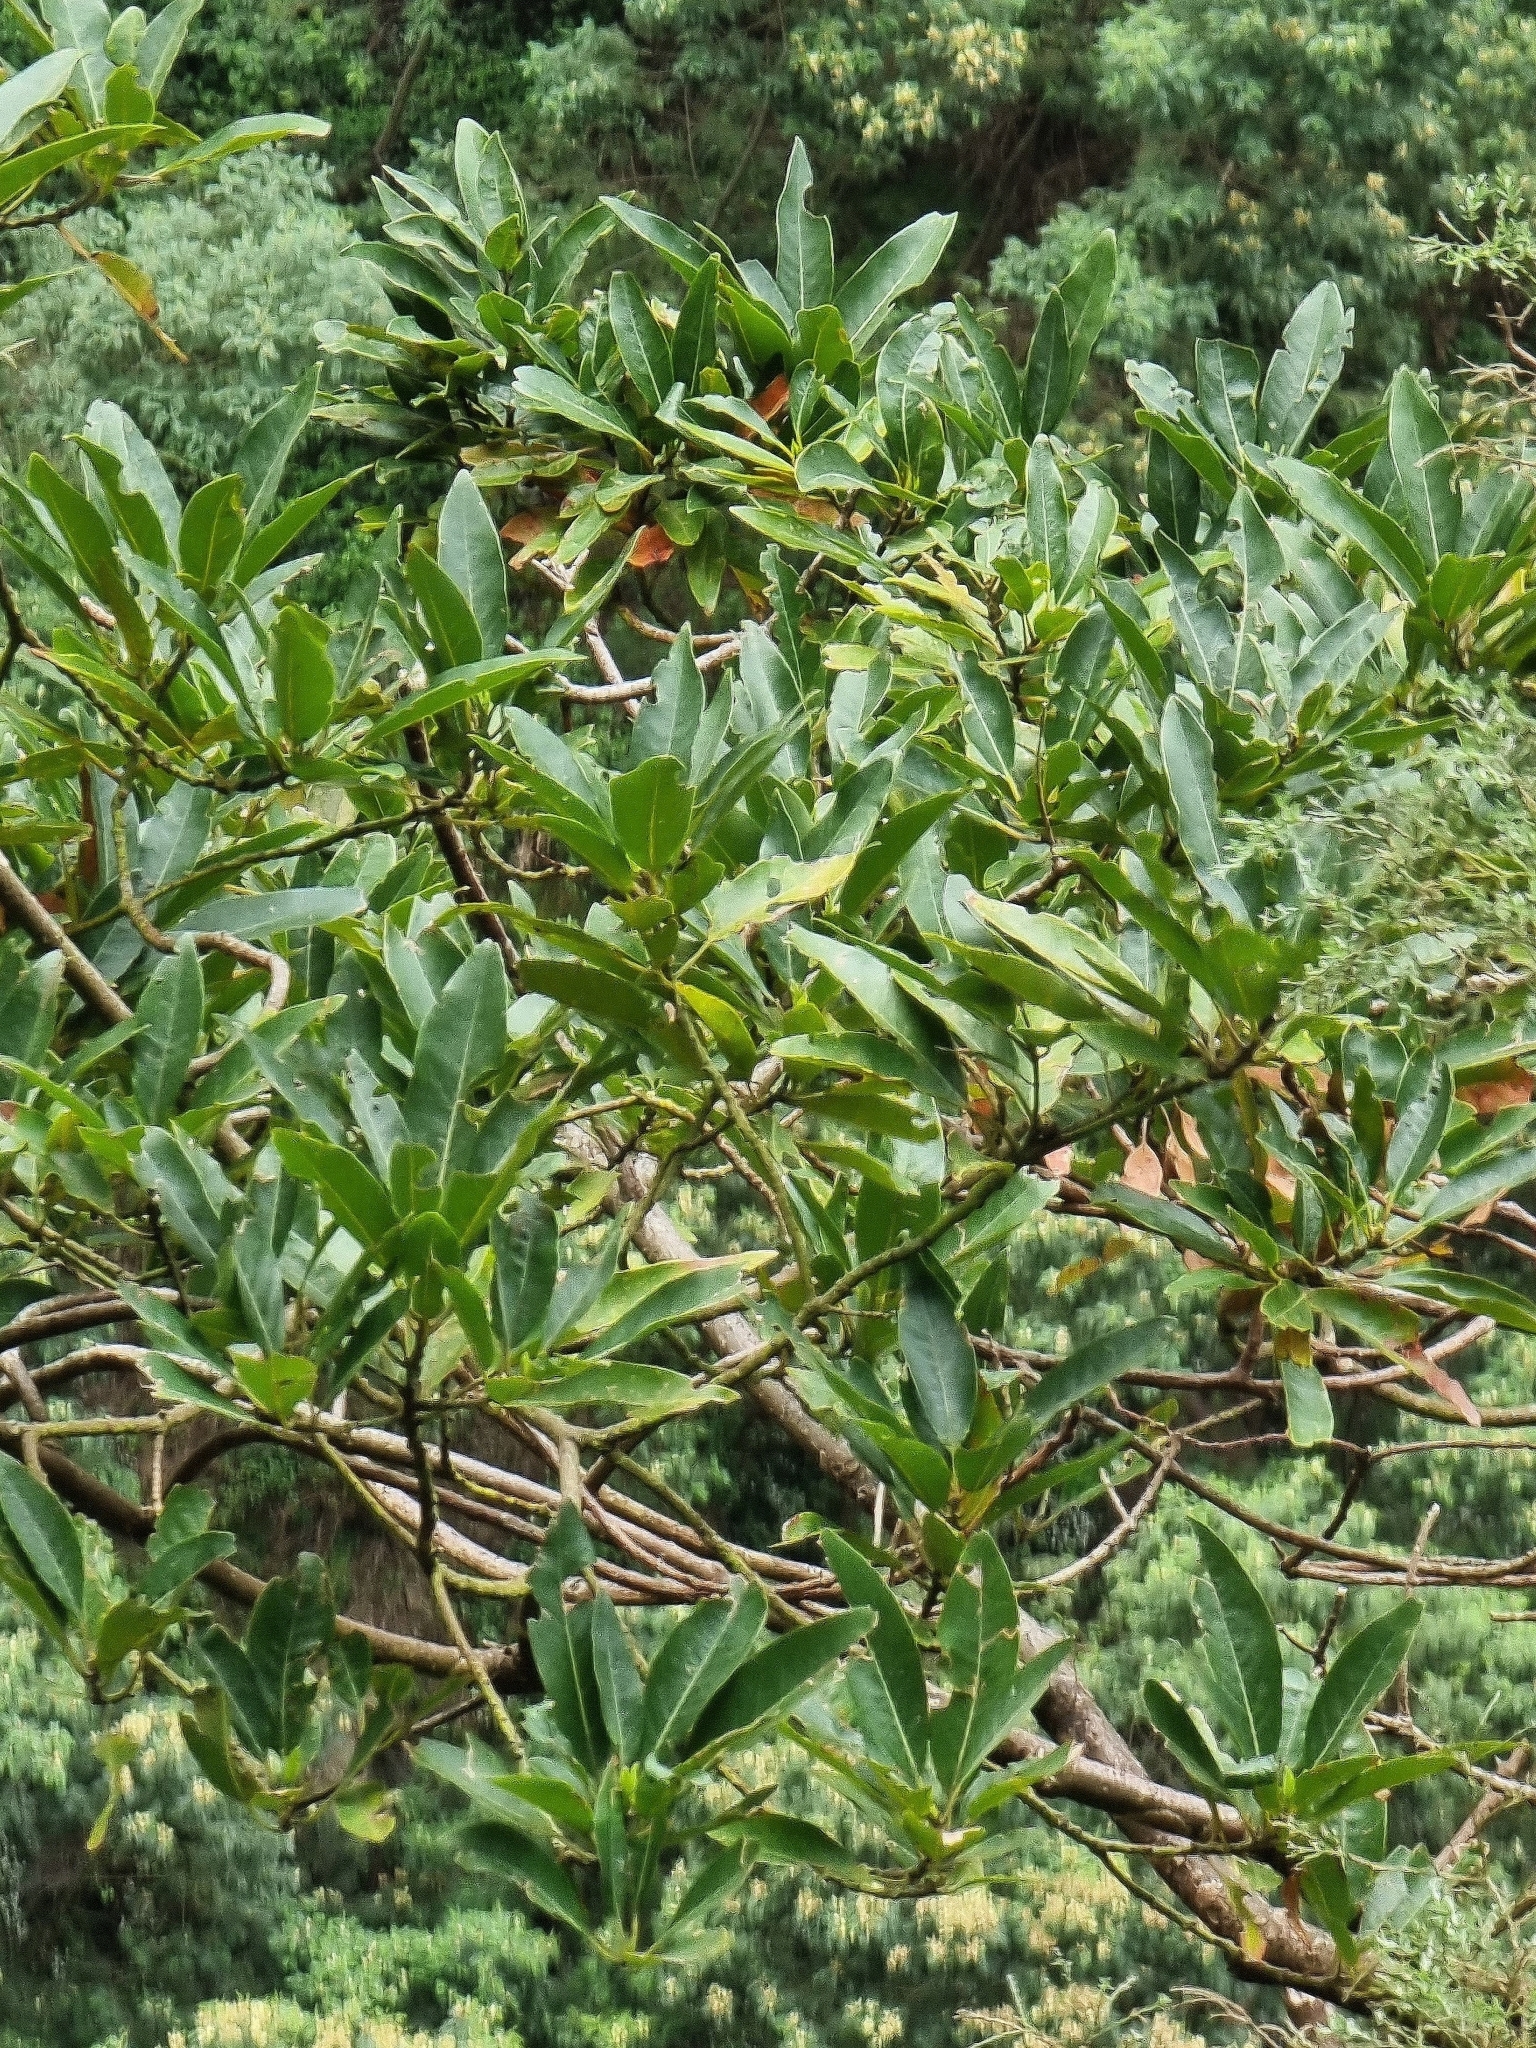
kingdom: Plantae
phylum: Tracheophyta
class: Magnoliopsida
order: Laurales
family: Lauraceae
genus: Persea
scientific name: Persea indica
